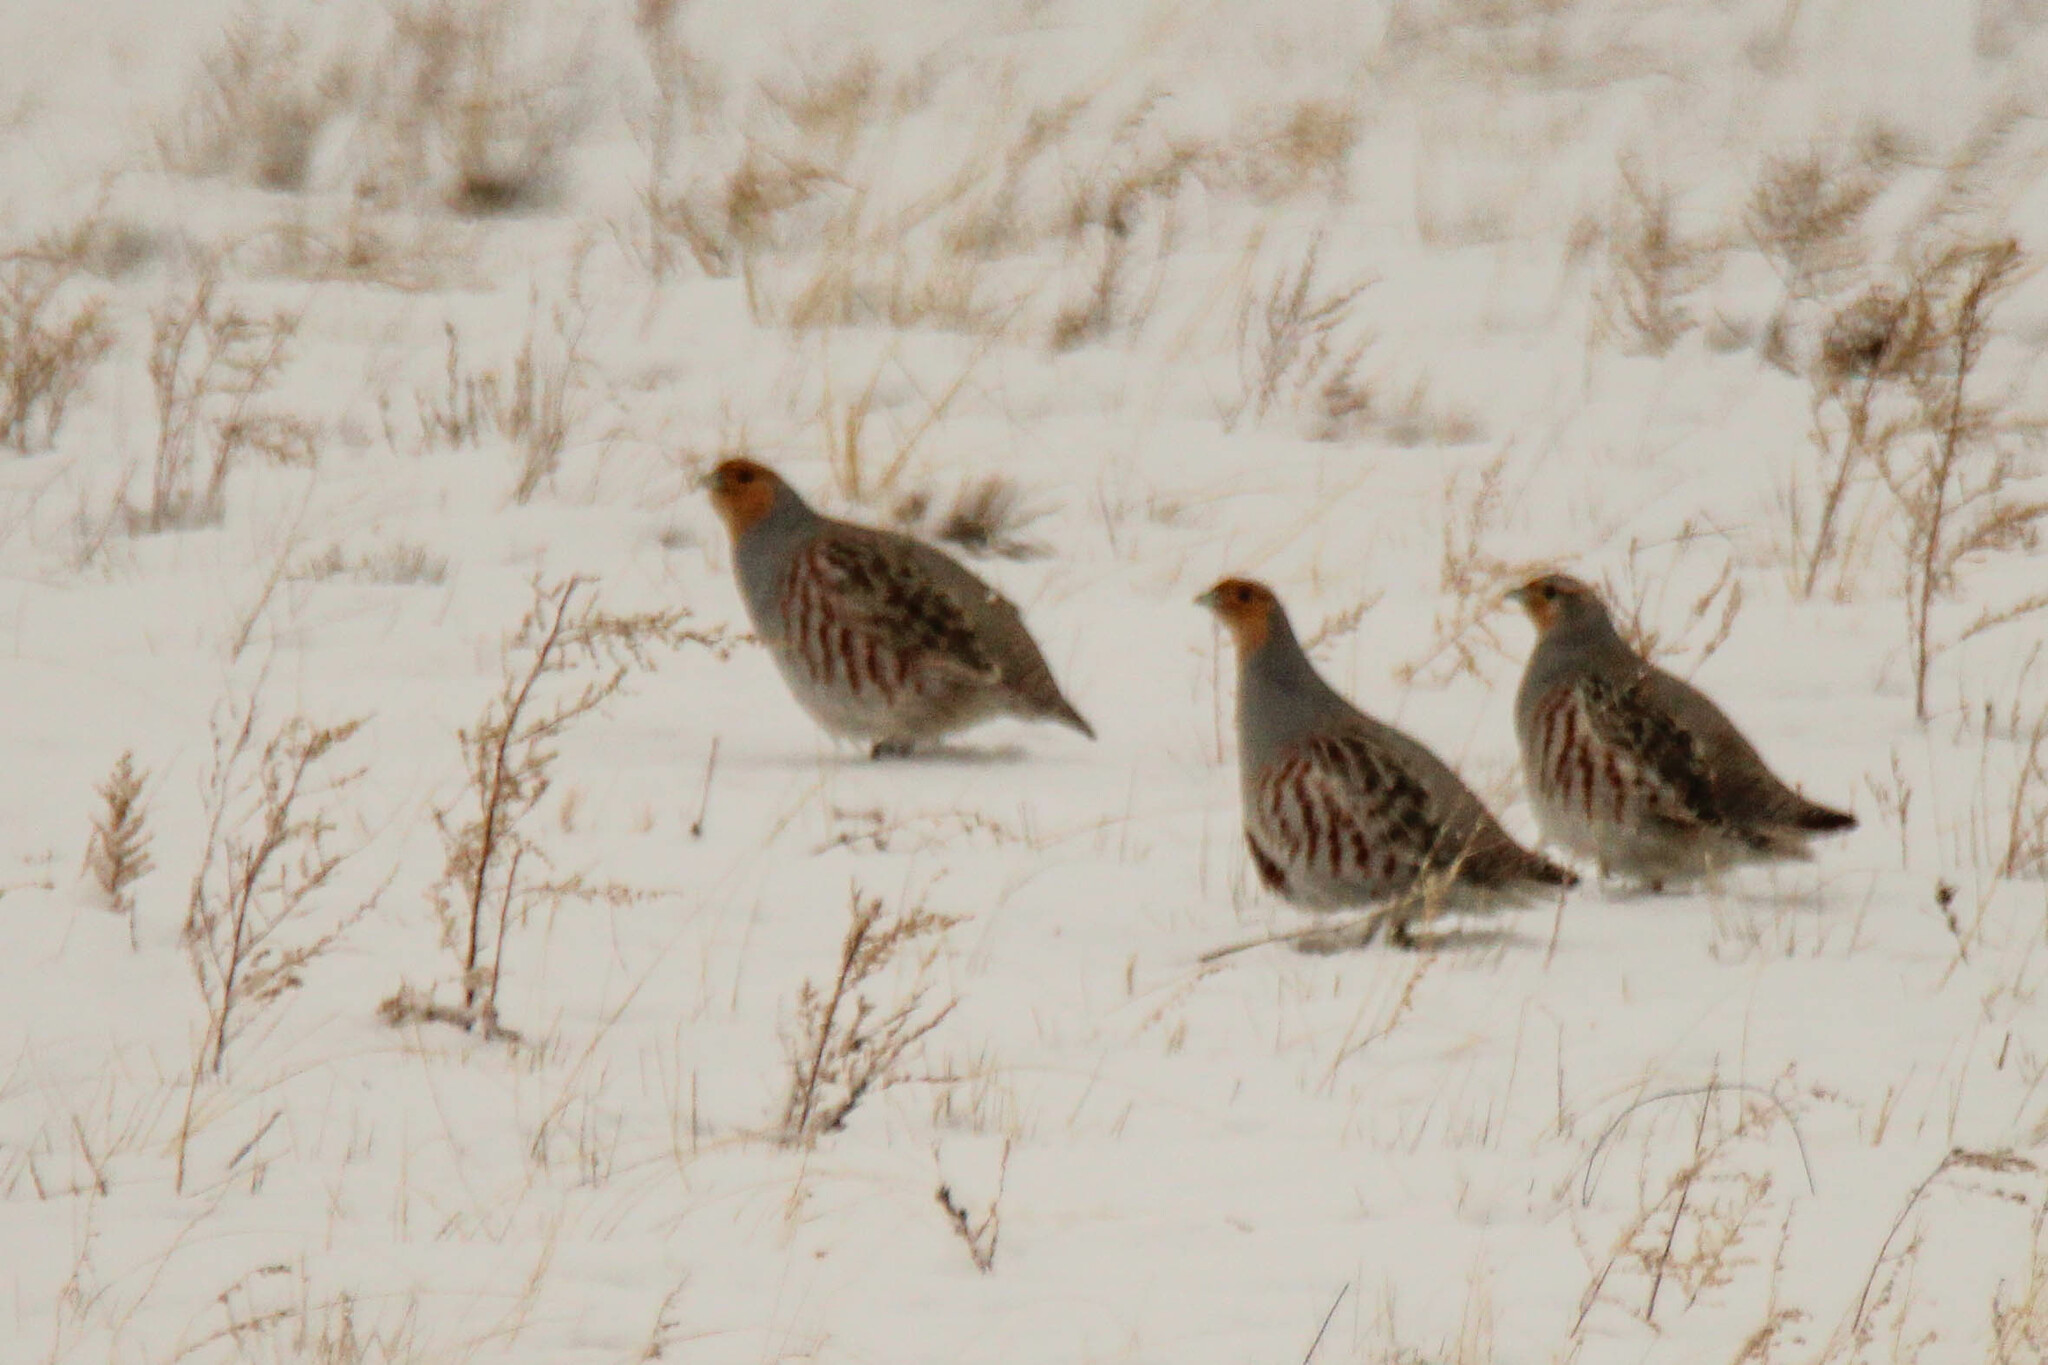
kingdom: Animalia
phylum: Chordata
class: Aves
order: Galliformes
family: Phasianidae
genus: Perdix
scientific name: Perdix perdix
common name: Grey partridge
